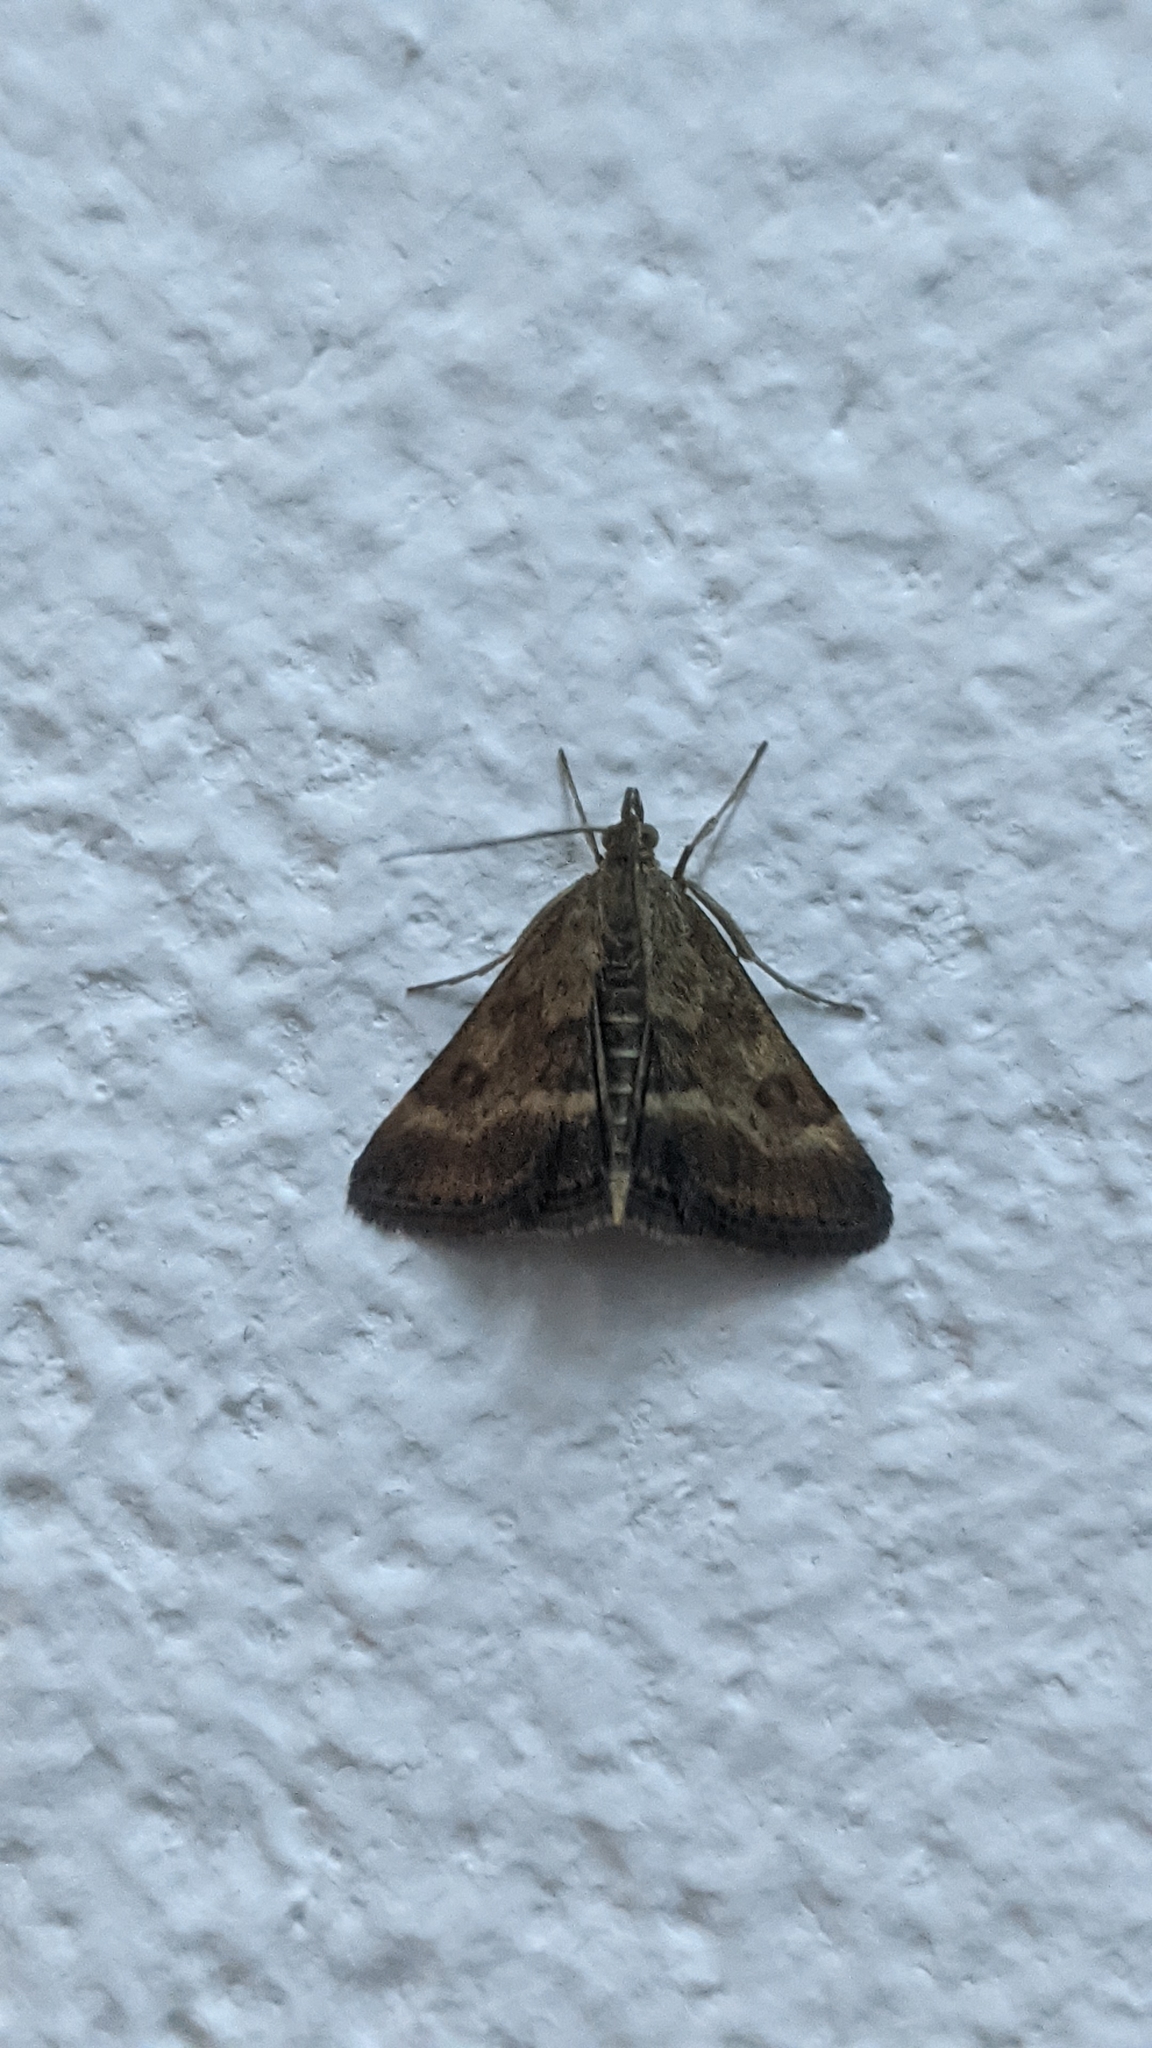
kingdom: Animalia
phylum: Arthropoda
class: Insecta
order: Lepidoptera
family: Crambidae
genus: Pyrausta
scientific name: Pyrausta despicata
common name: Straw-barred pearl
